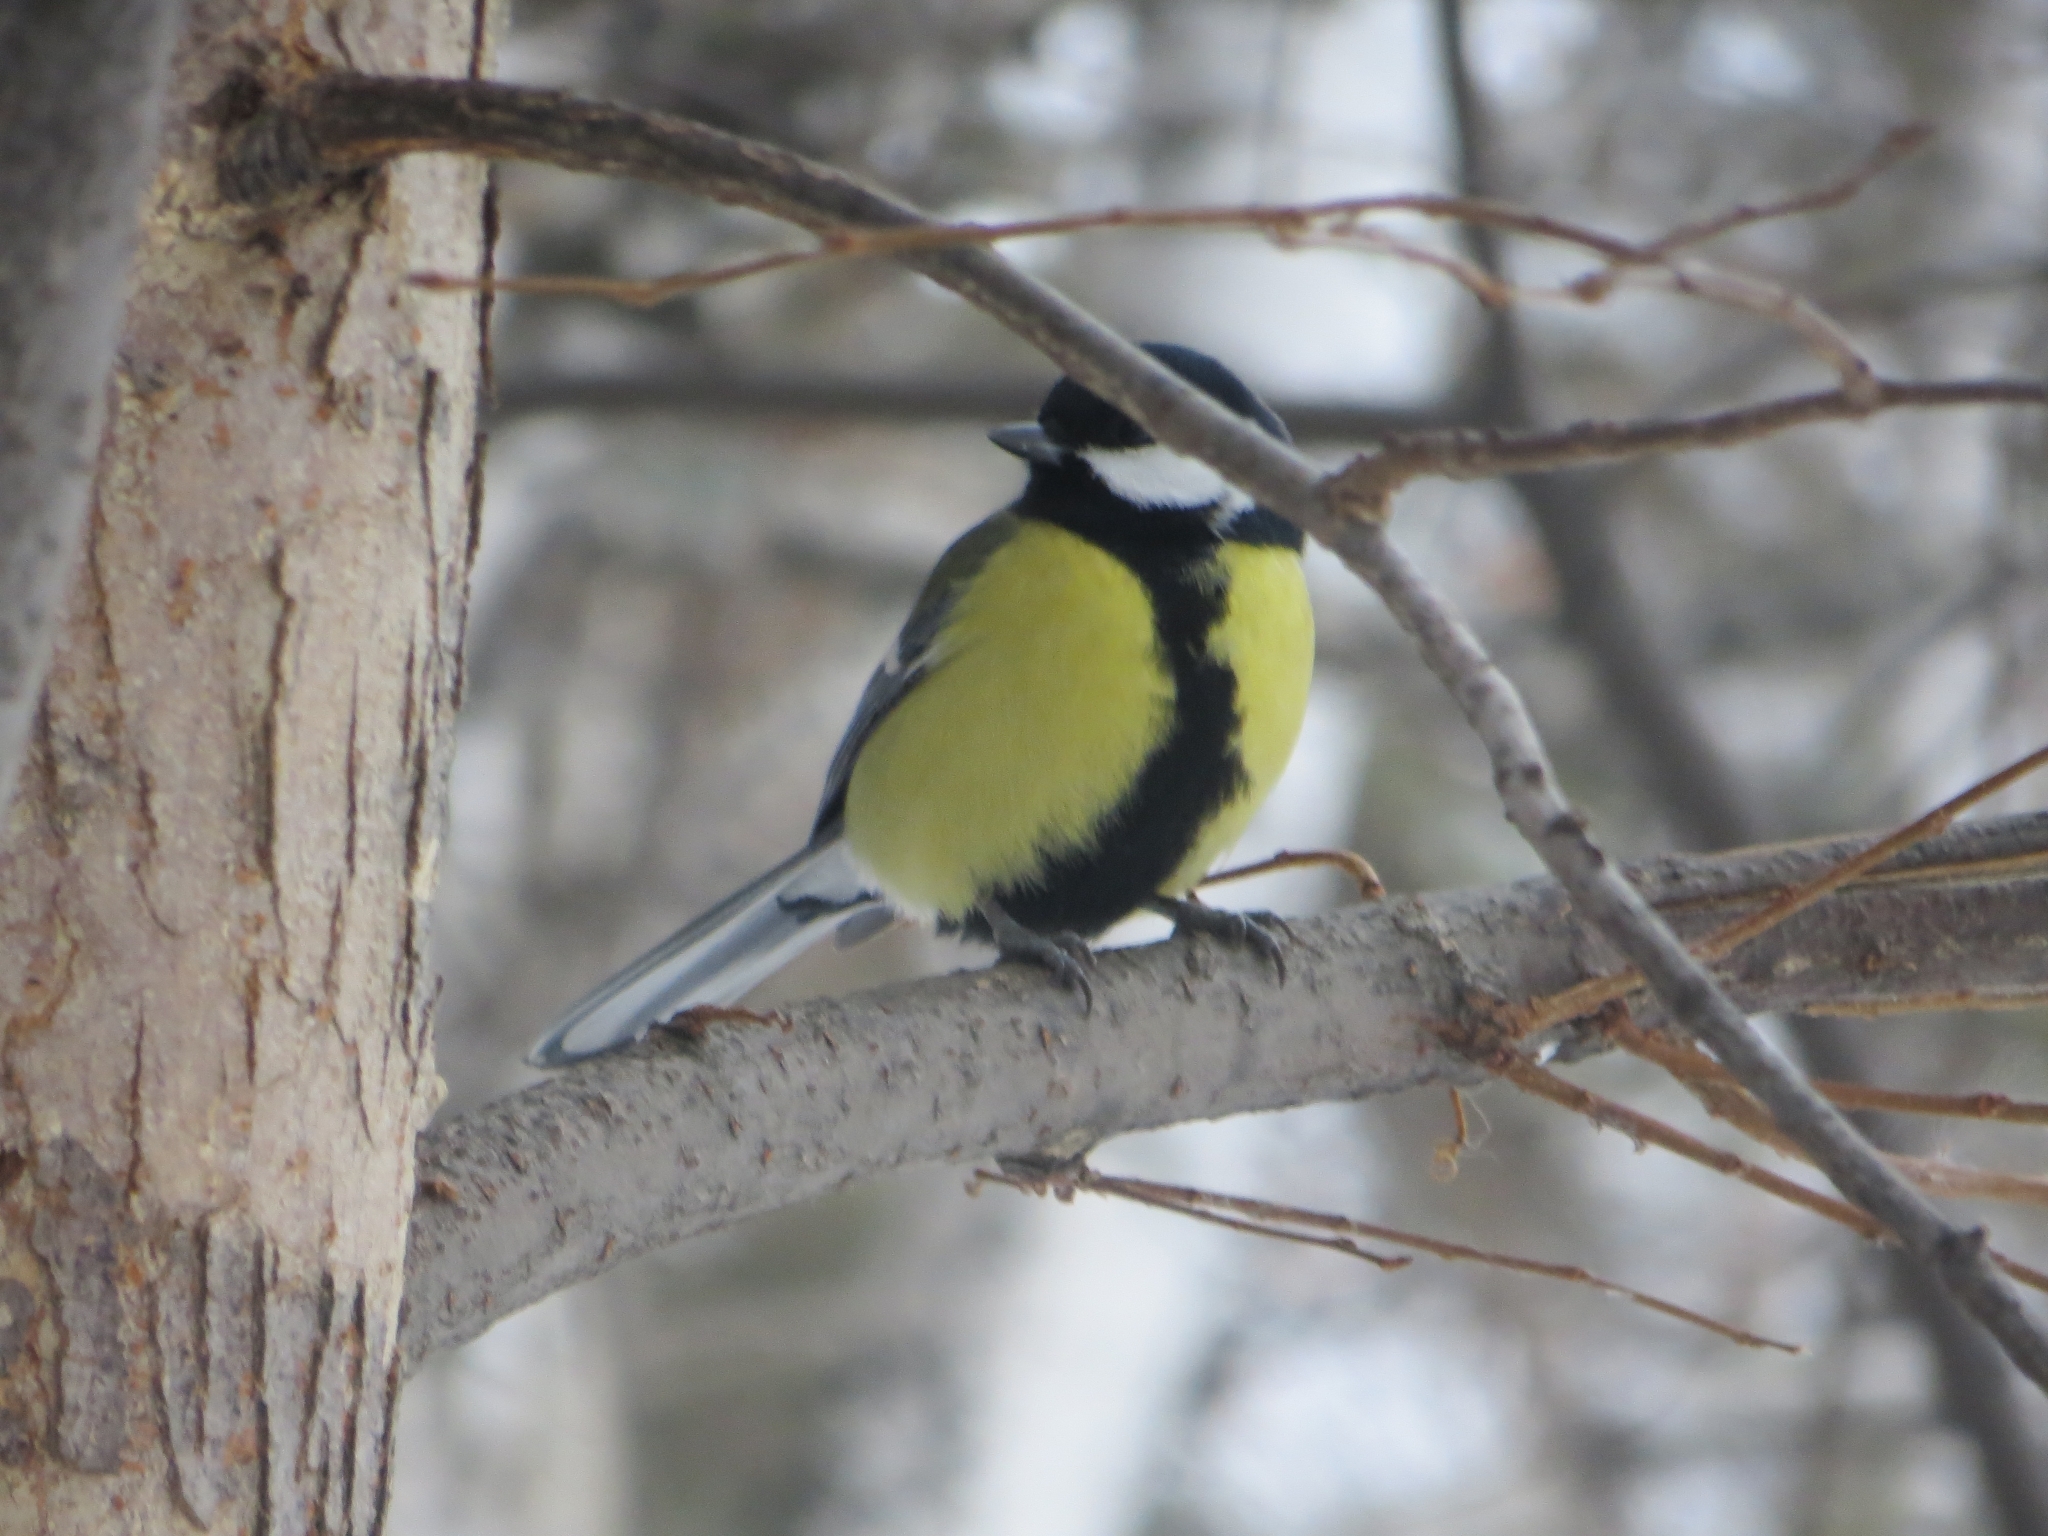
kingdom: Animalia
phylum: Chordata
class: Aves
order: Passeriformes
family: Paridae
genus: Parus
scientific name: Parus major
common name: Great tit
